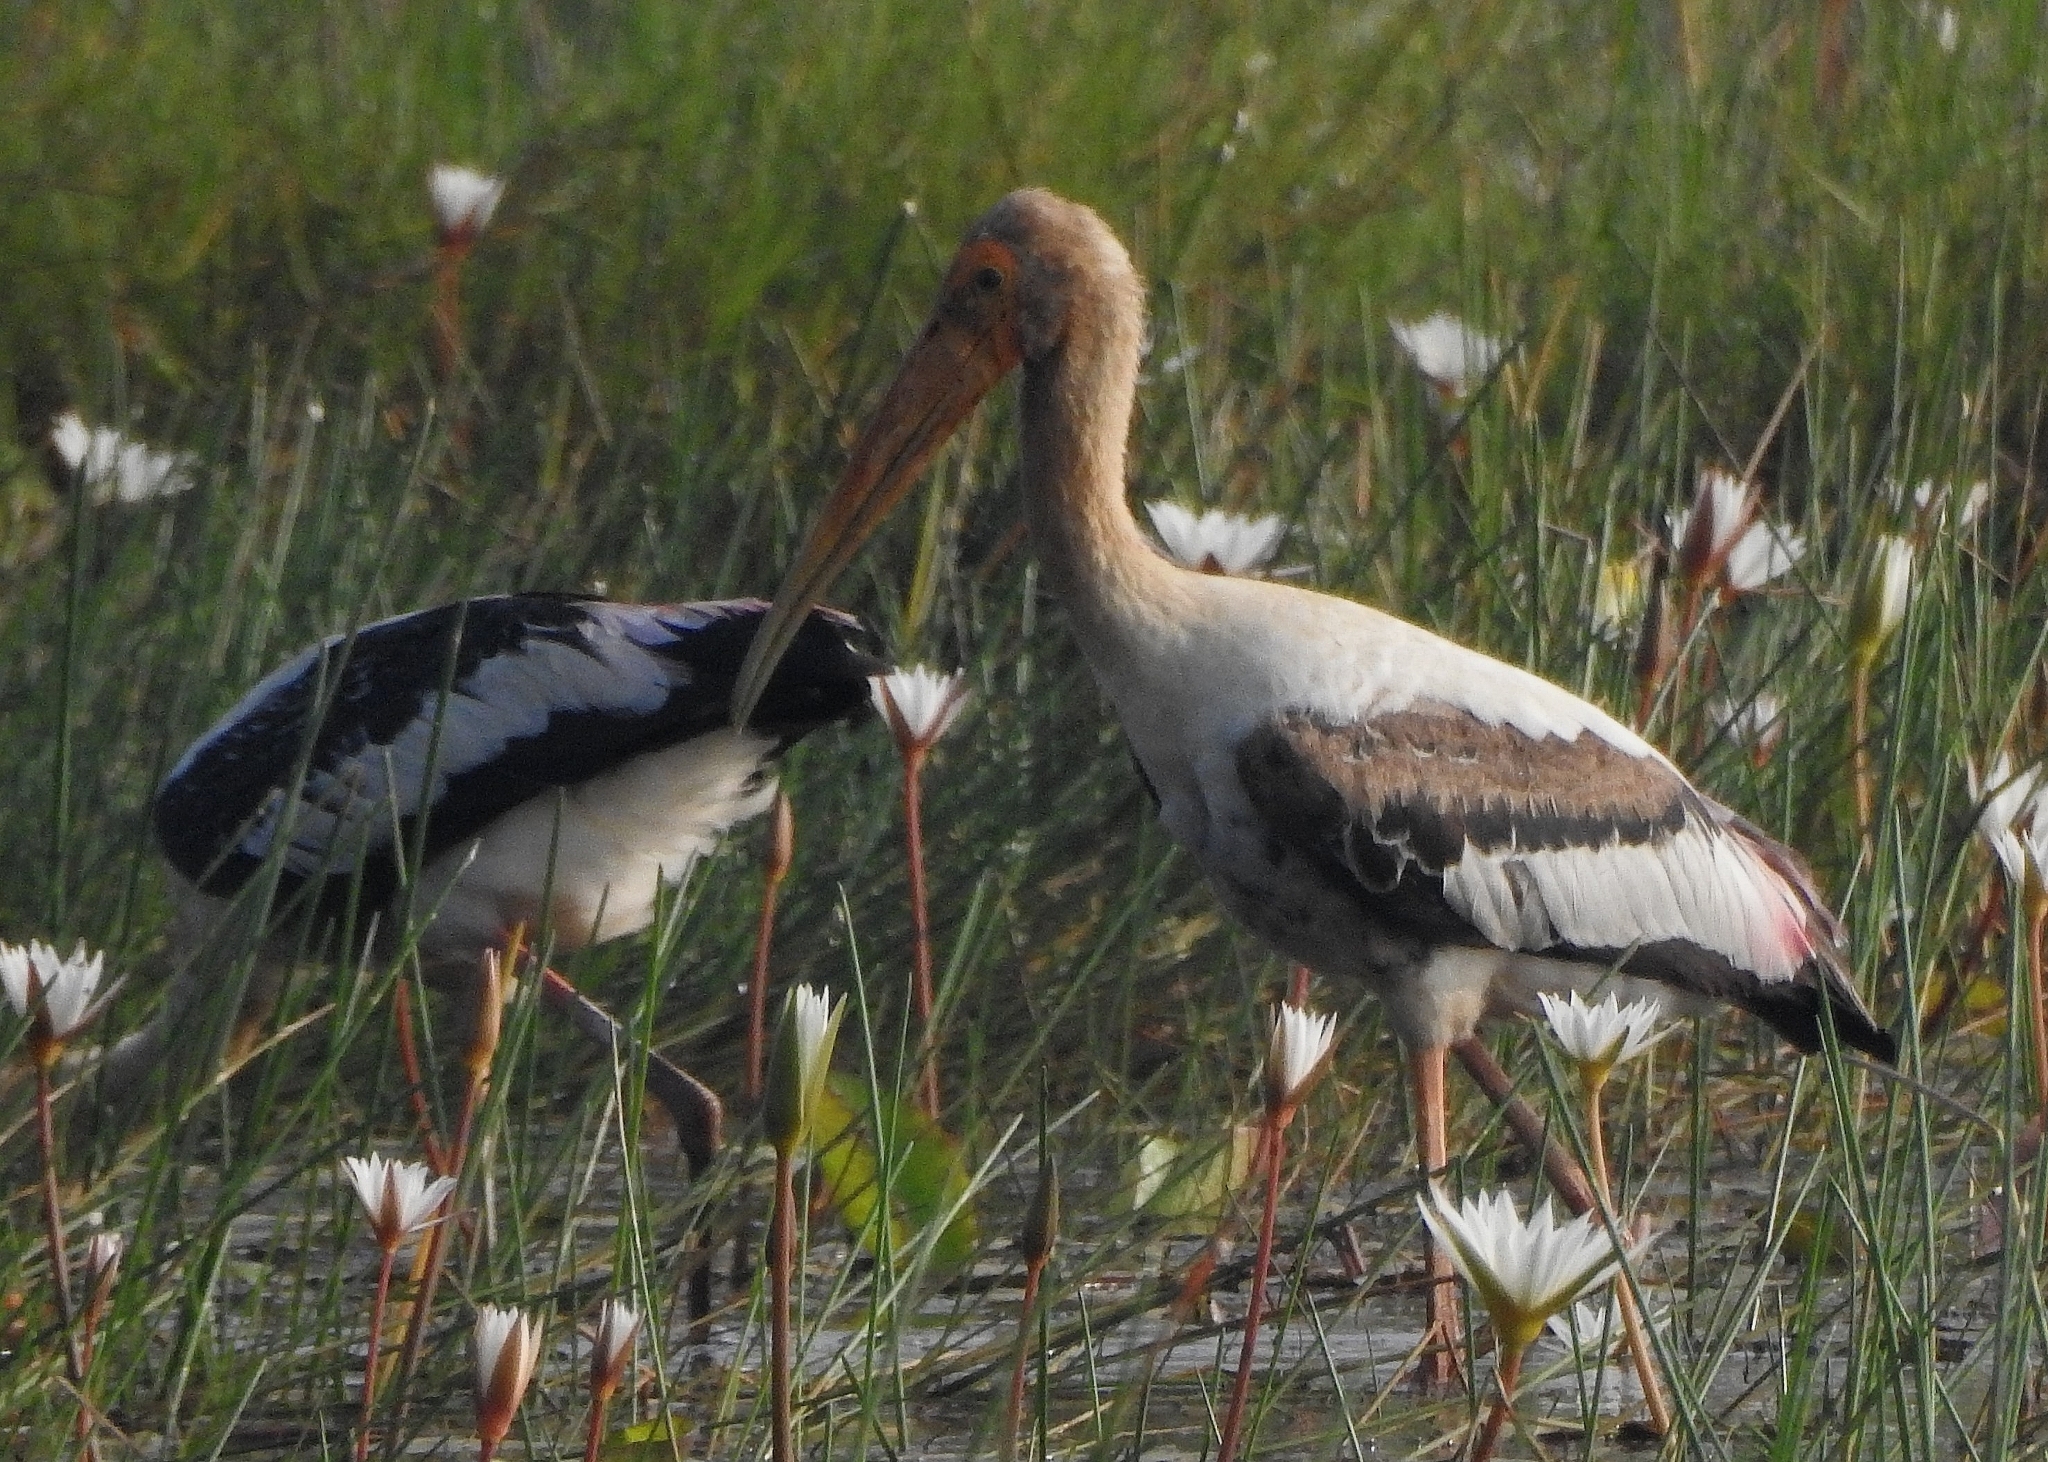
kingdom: Animalia
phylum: Chordata
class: Aves
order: Ciconiiformes
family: Ciconiidae
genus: Mycteria
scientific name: Mycteria leucocephala
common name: Painted stork
